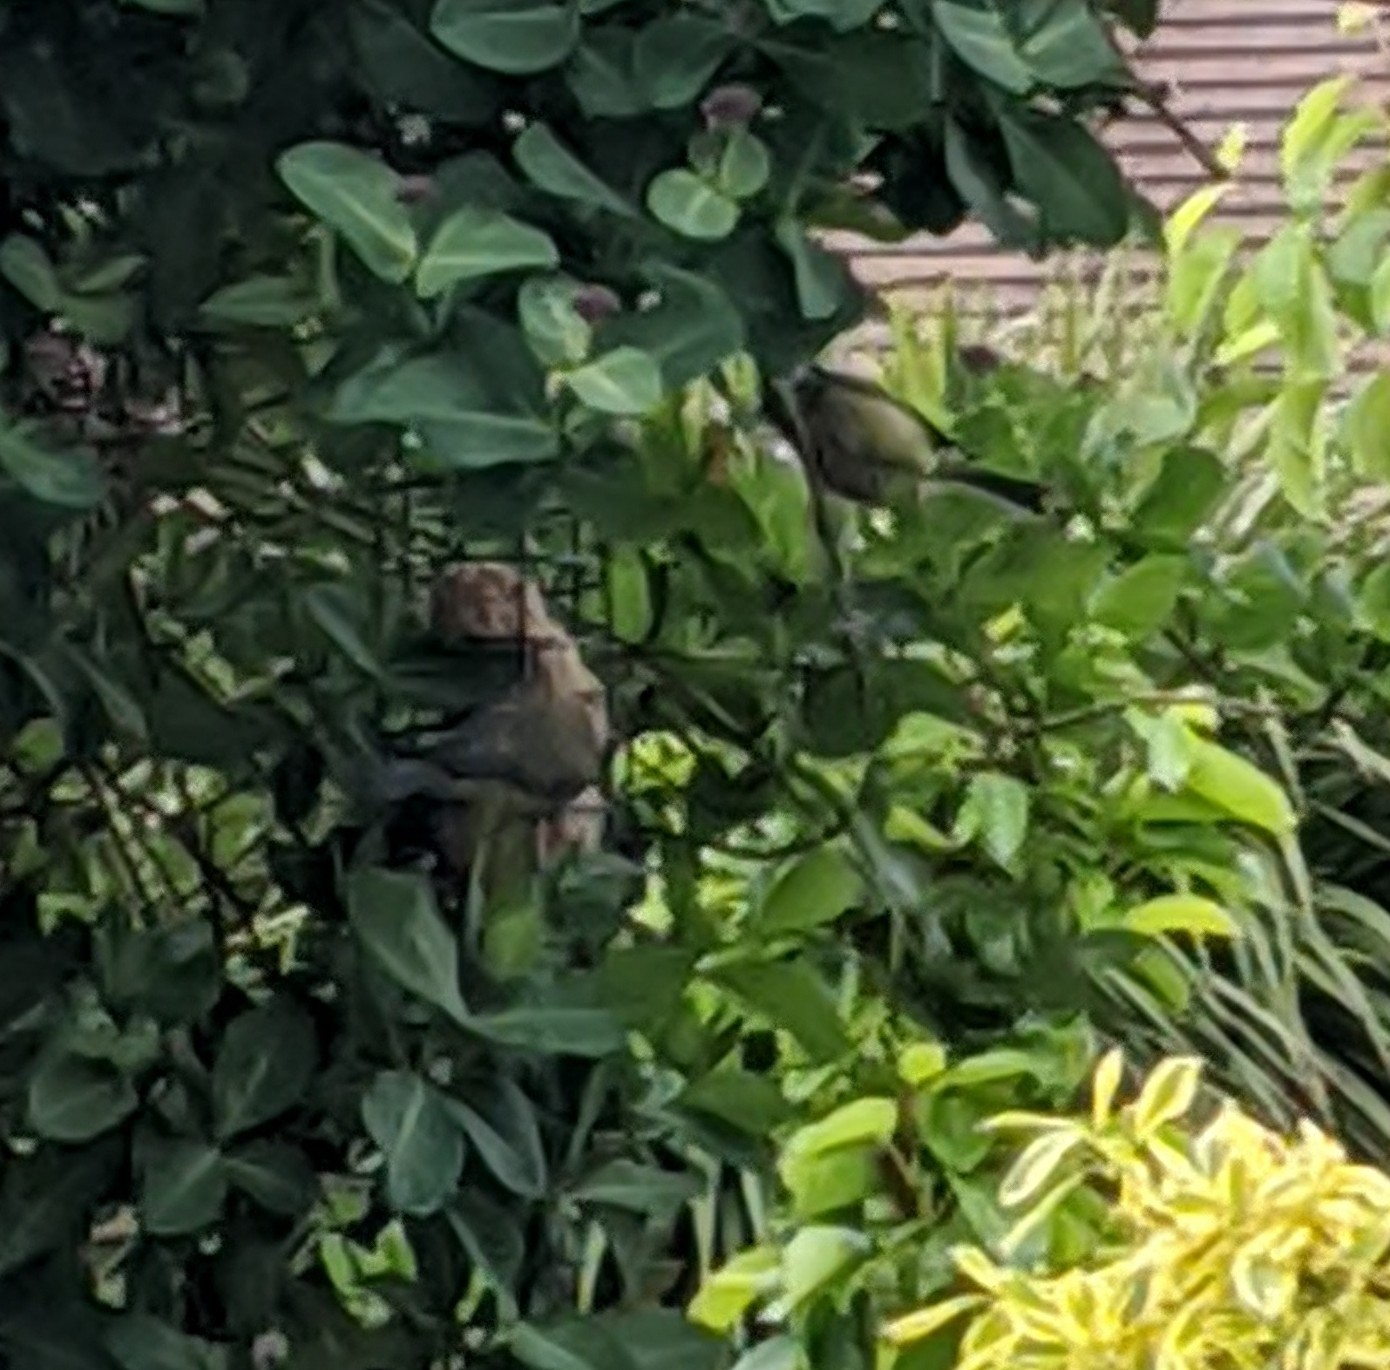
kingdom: Animalia
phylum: Chordata
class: Aves
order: Passeriformes
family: Paridae
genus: Cyanistes
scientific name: Cyanistes caeruleus
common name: Eurasian blue tit
